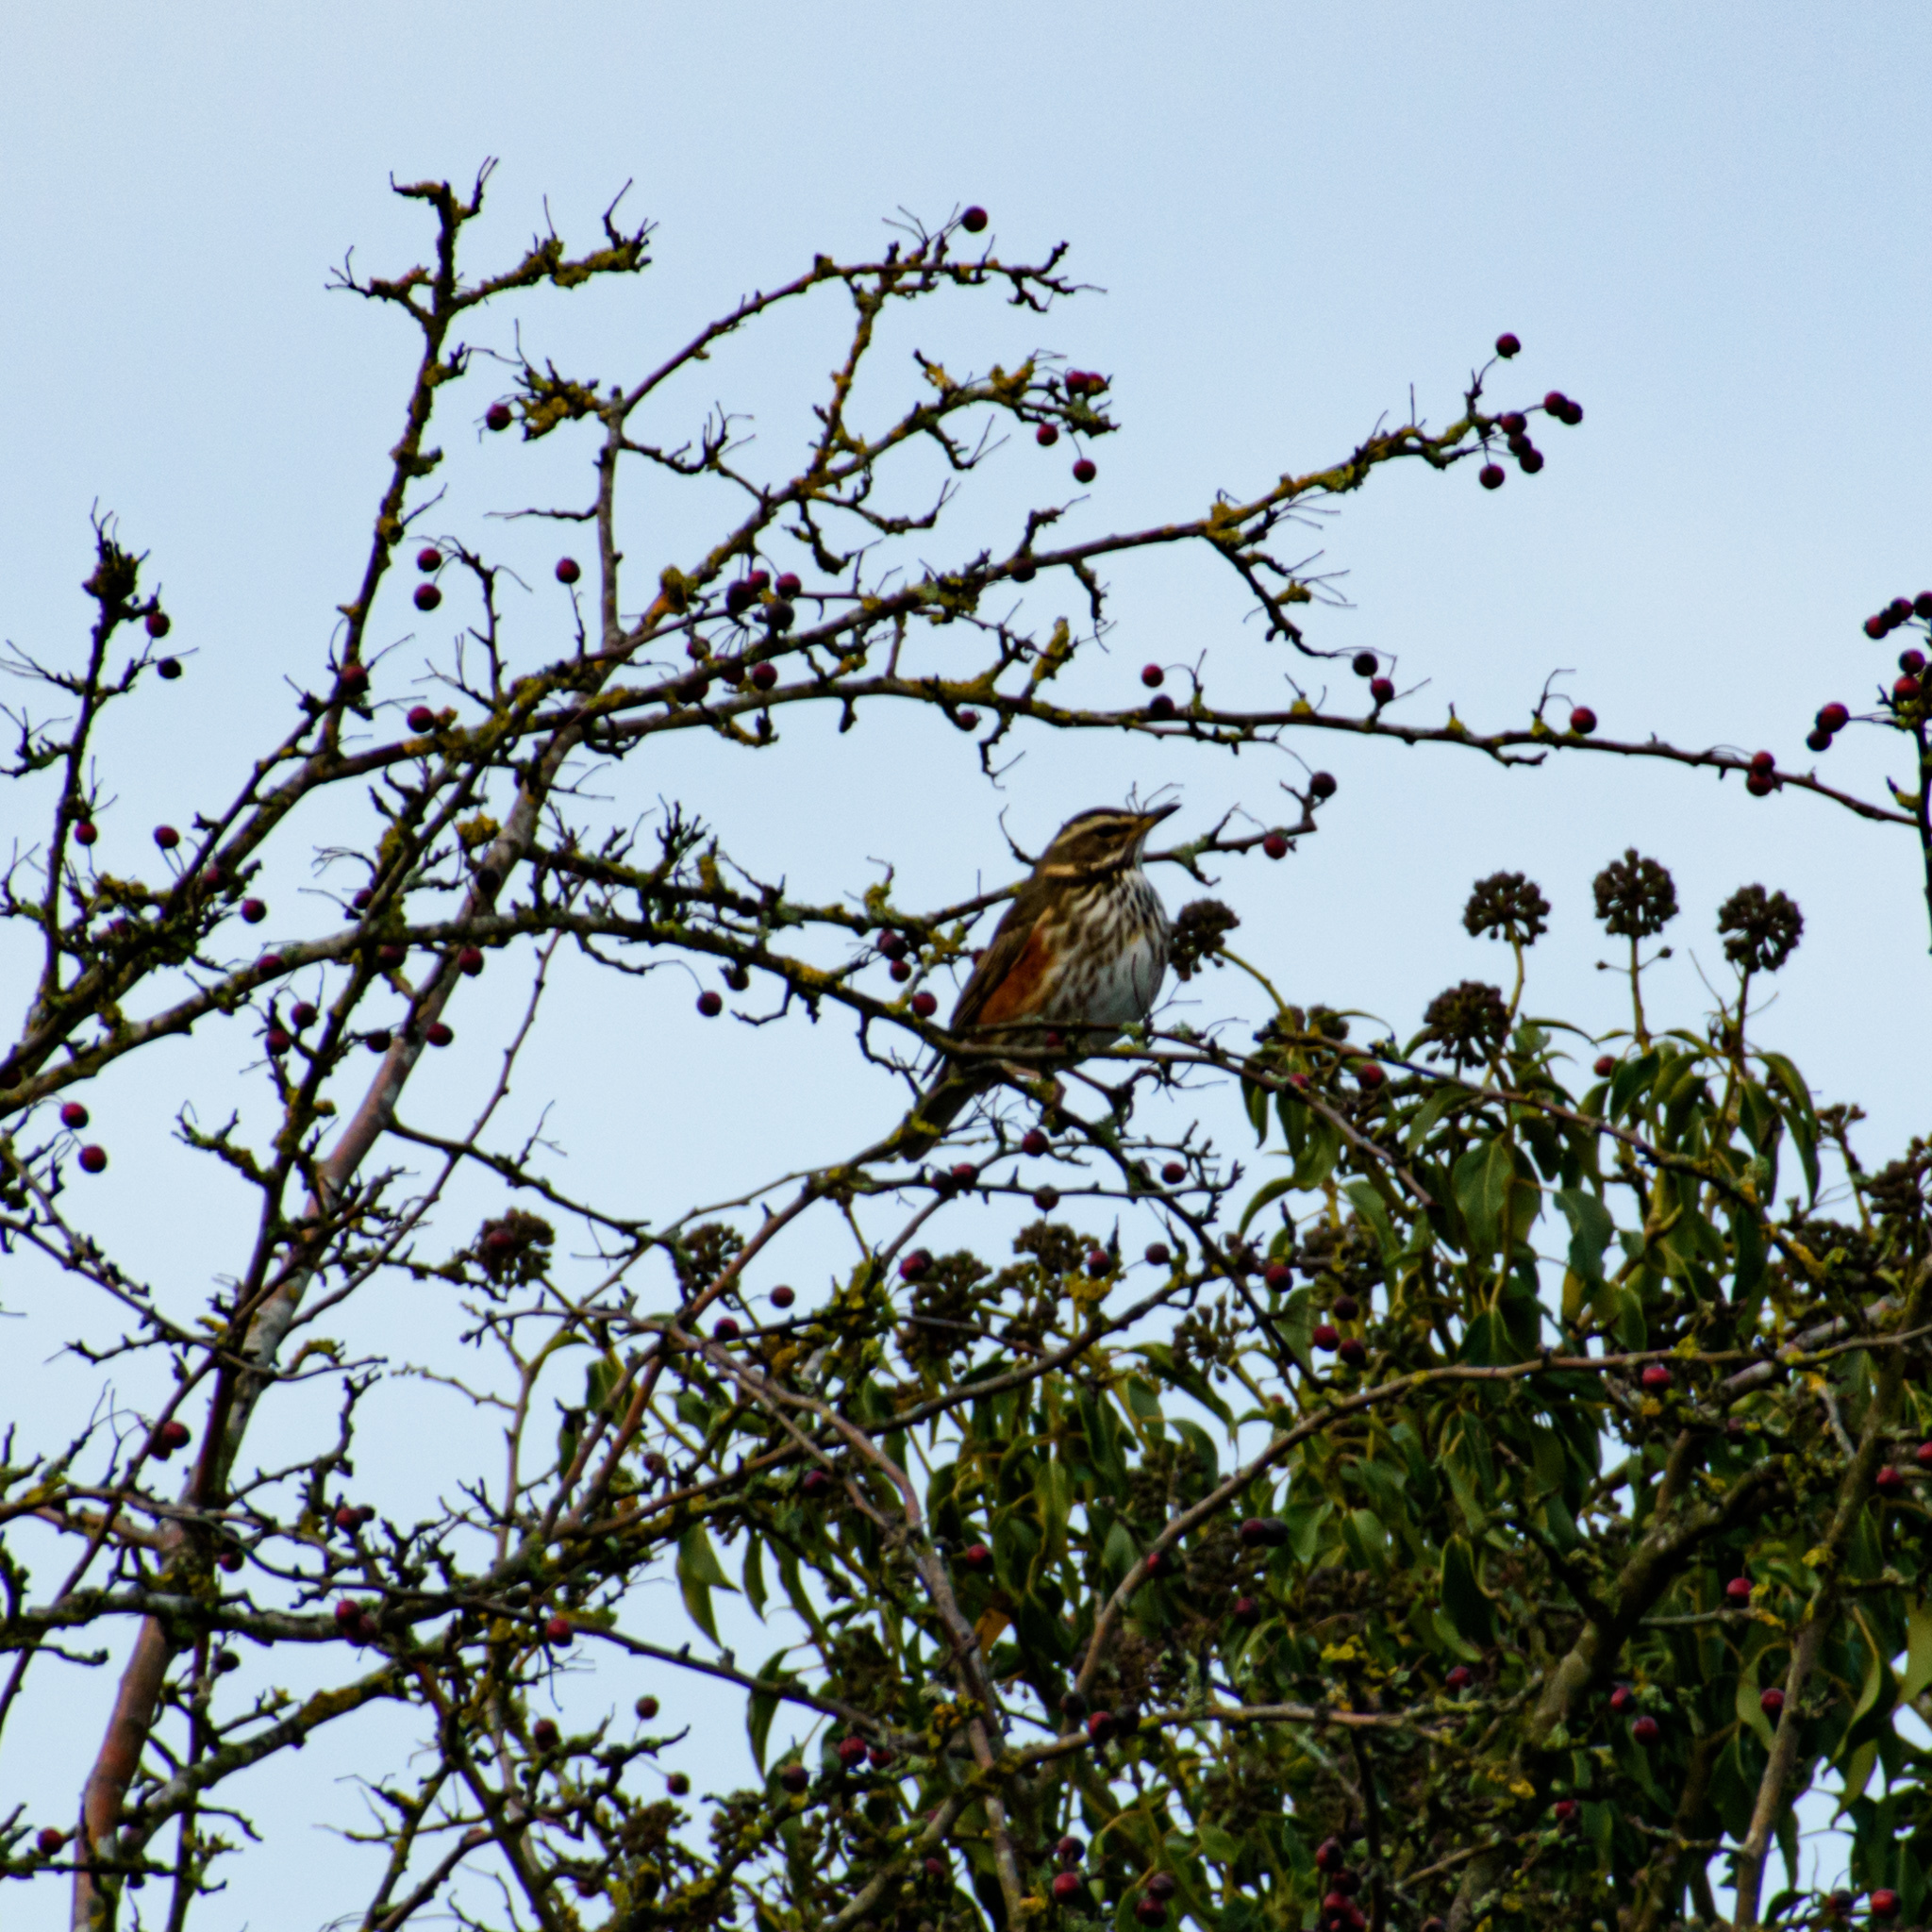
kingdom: Animalia
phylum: Chordata
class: Aves
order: Passeriformes
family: Turdidae
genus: Turdus
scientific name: Turdus iliacus
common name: Redwing
